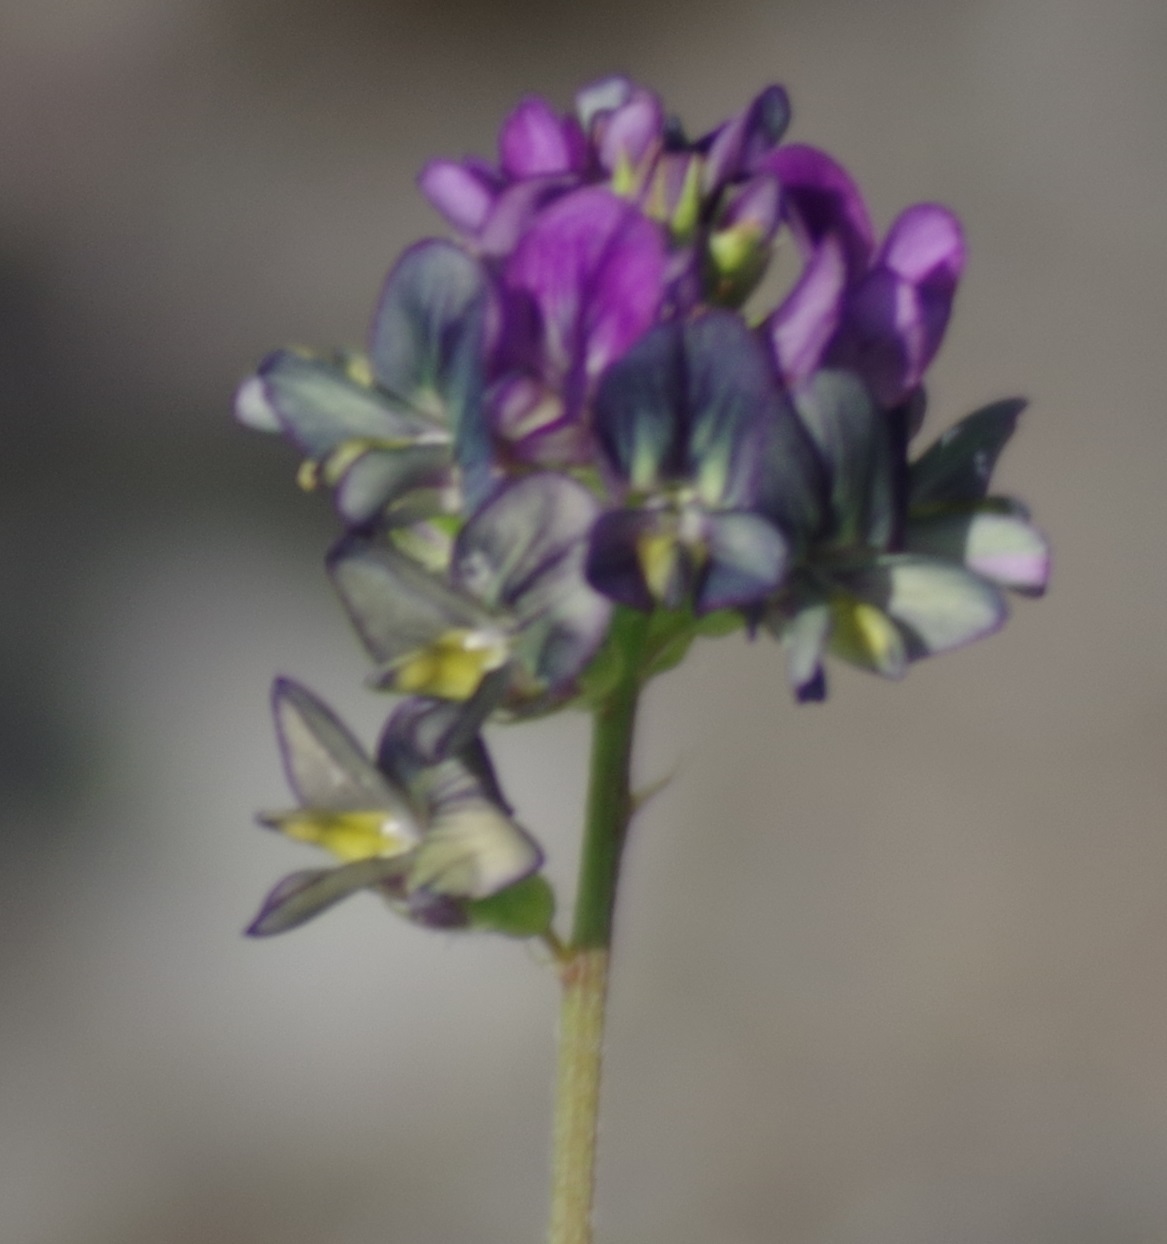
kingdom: Plantae
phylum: Tracheophyta
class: Magnoliopsida
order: Fabales
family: Fabaceae
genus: Medicago
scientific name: Medicago varia
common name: Sand lucerne
